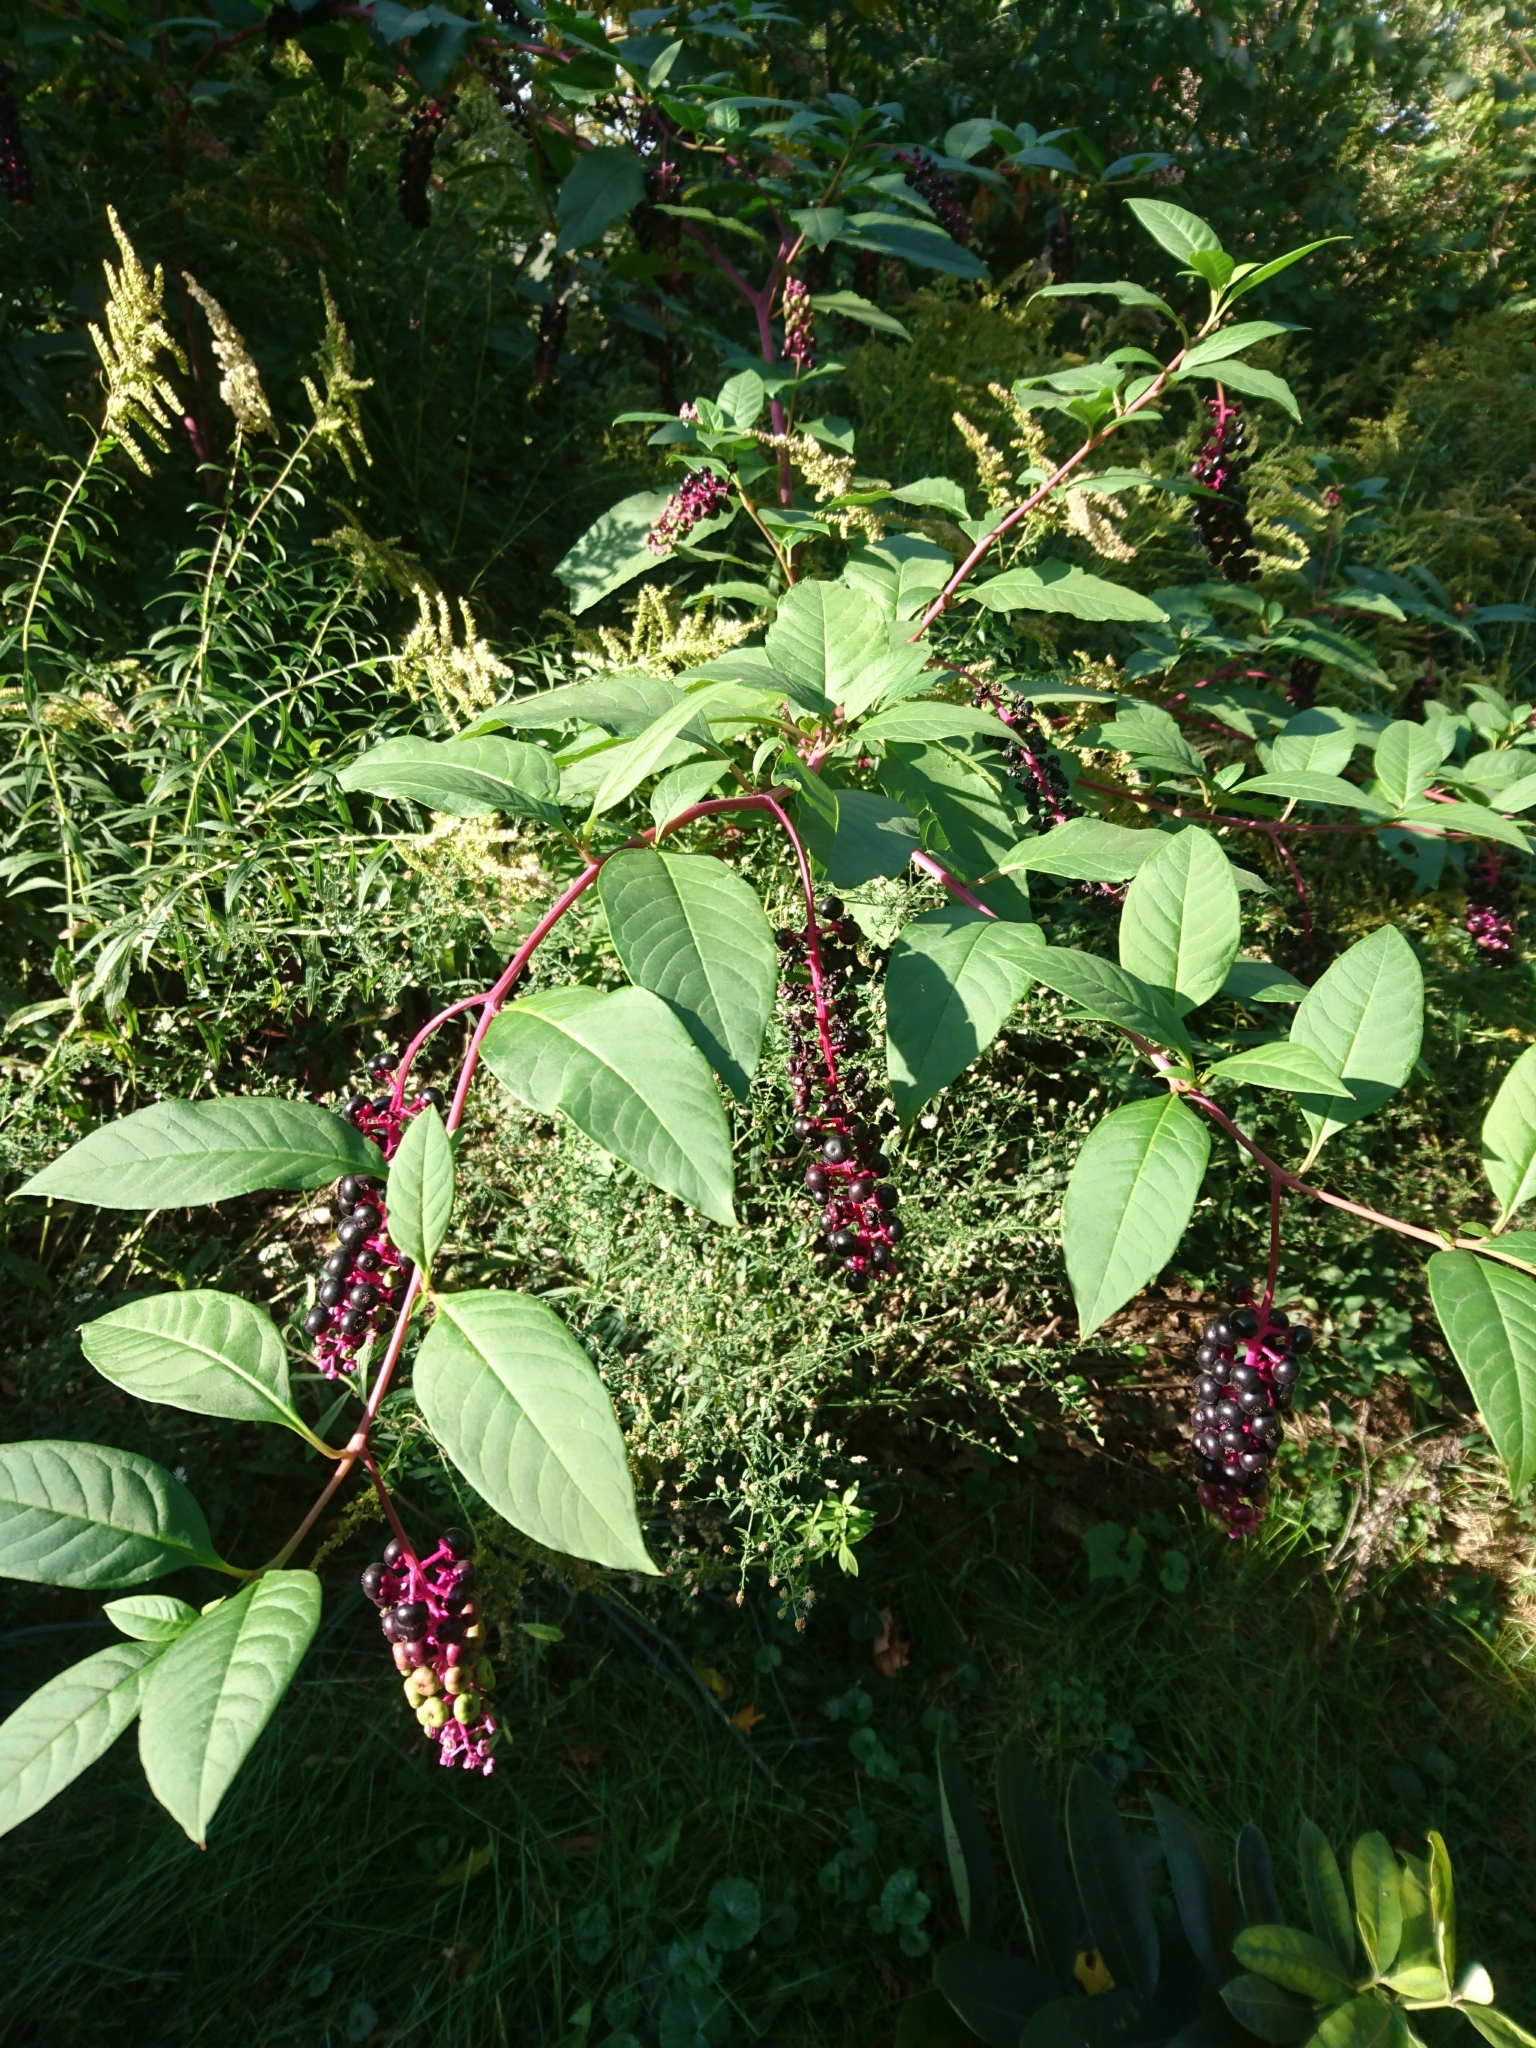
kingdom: Plantae
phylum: Tracheophyta
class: Magnoliopsida
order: Caryophyllales
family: Phytolaccaceae
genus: Phytolacca
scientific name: Phytolacca americana
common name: American pokeweed
